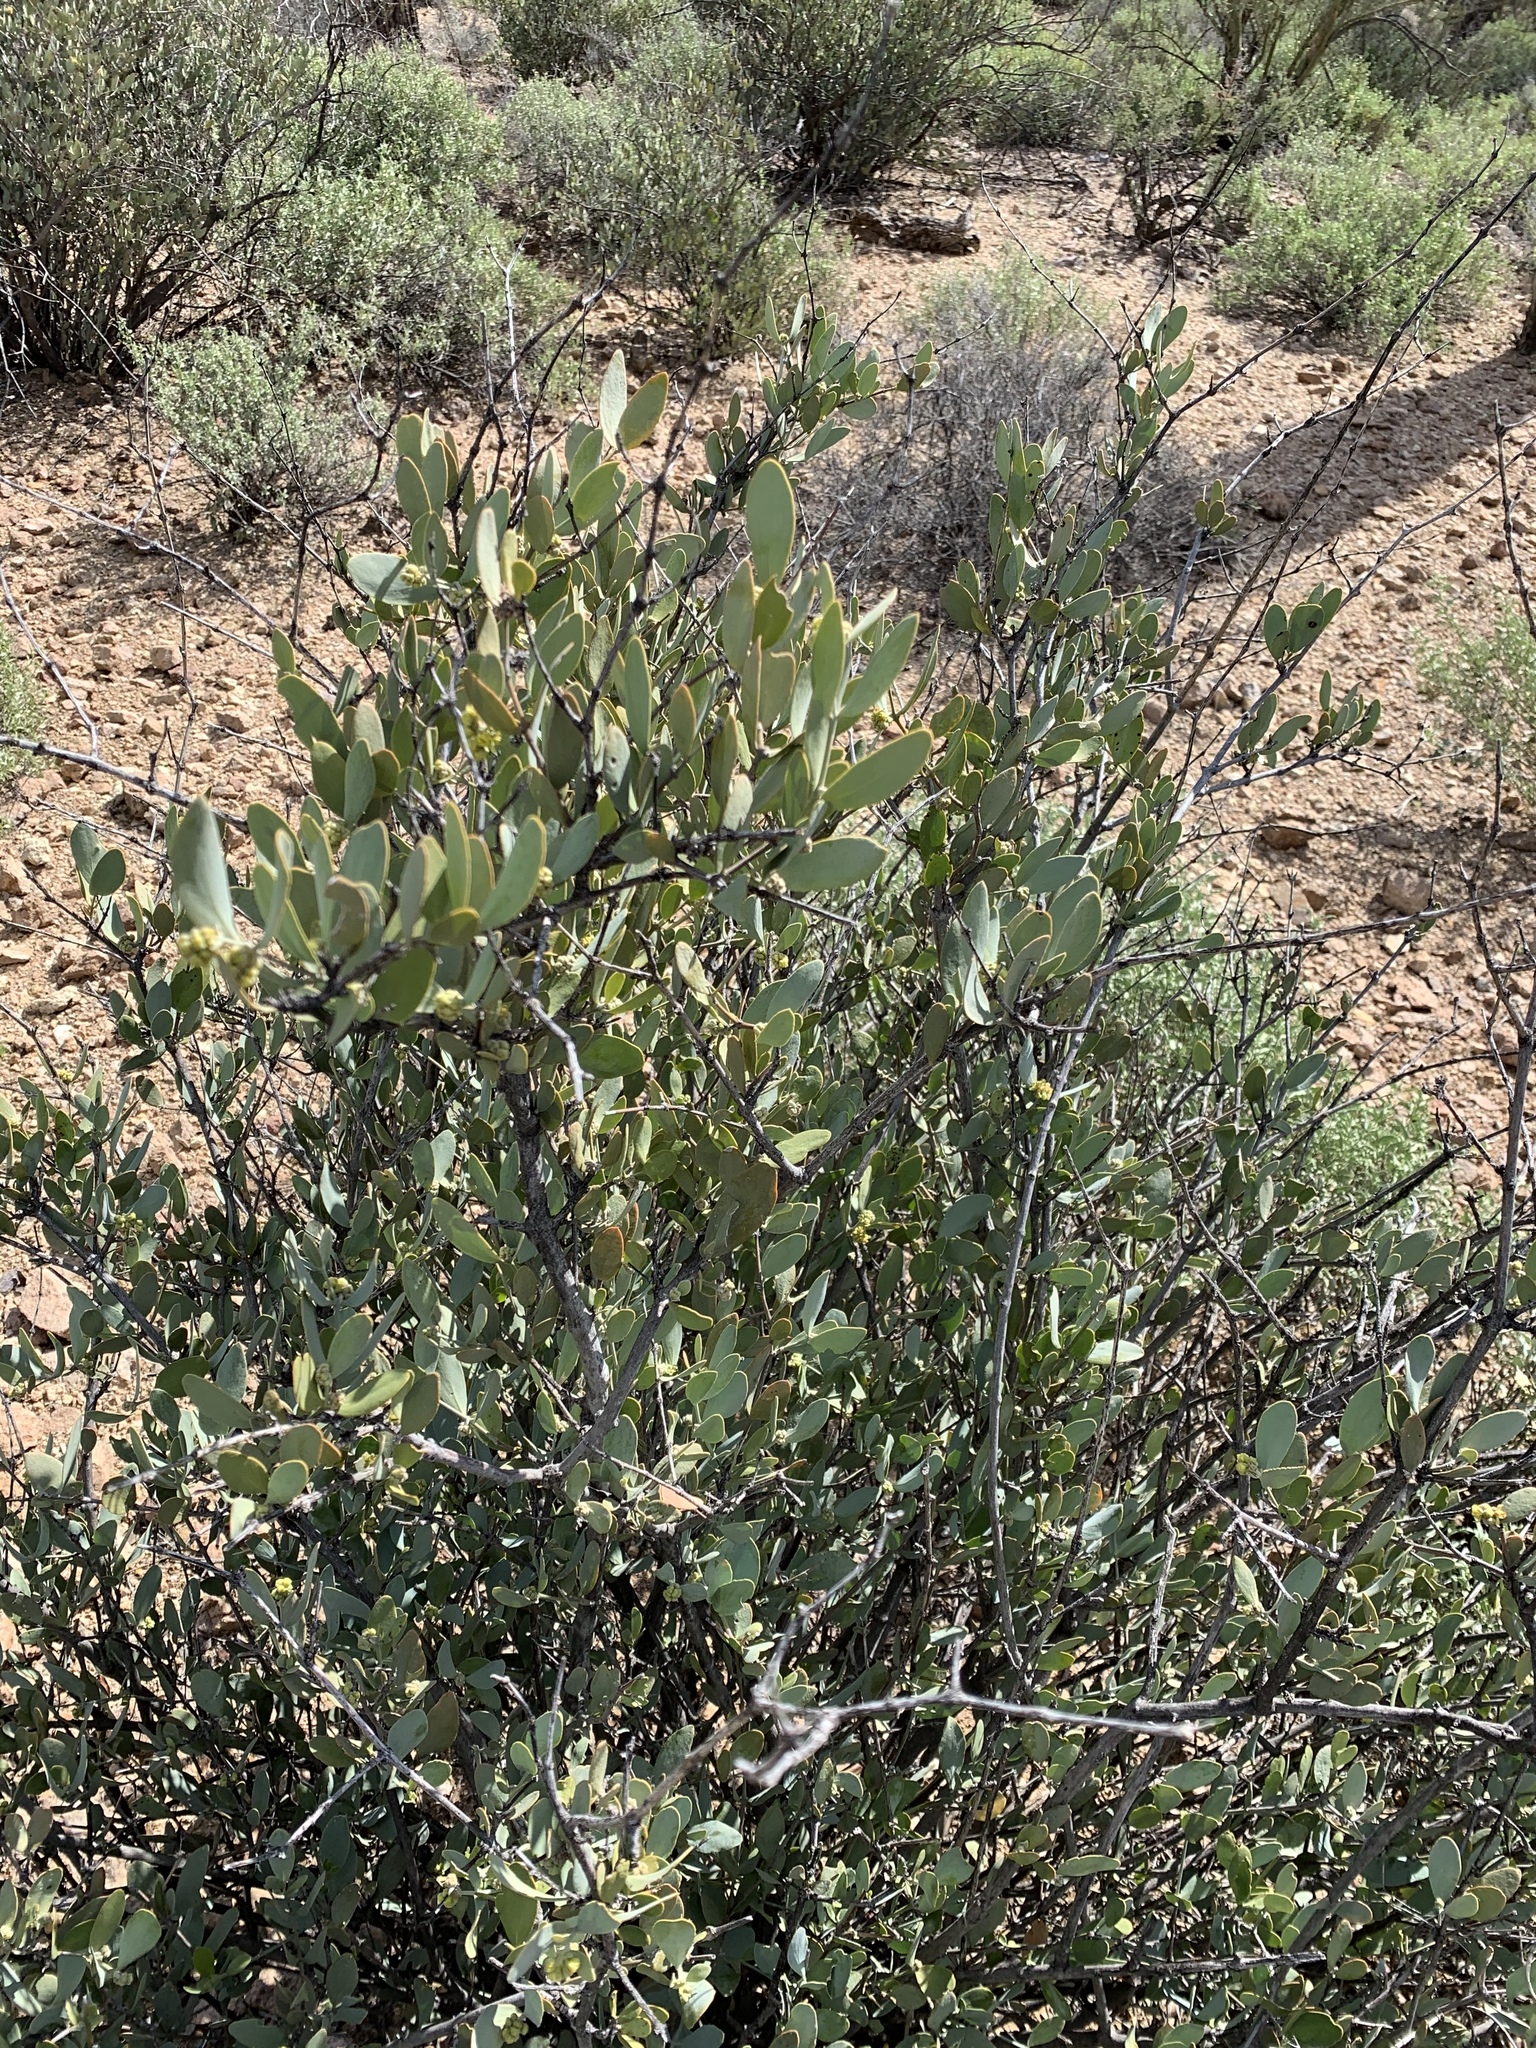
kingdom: Plantae
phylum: Tracheophyta
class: Magnoliopsida
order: Caryophyllales
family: Simmondsiaceae
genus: Simmondsia
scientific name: Simmondsia chinensis
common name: Jojoba
